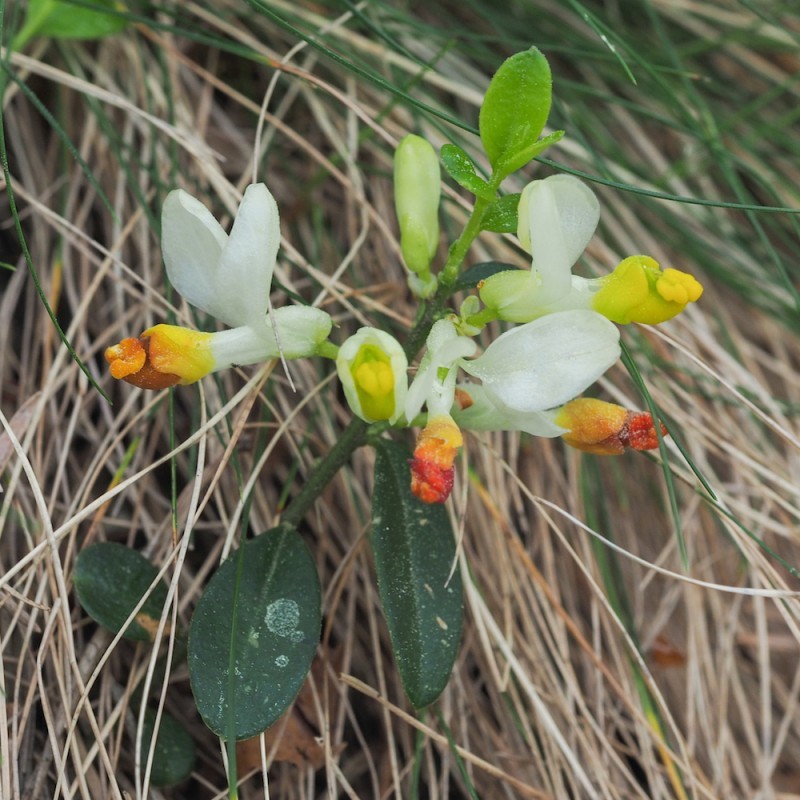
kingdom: Plantae
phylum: Tracheophyta
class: Magnoliopsida
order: Fabales
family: Polygalaceae
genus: Polygaloides
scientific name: Polygaloides chamaebuxus
